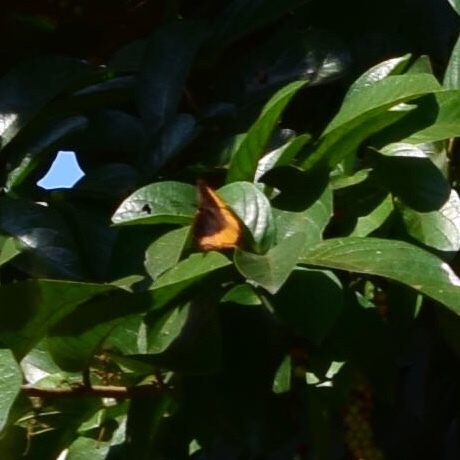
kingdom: Animalia
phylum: Arthropoda
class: Insecta
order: Lepidoptera
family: Nymphalidae
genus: Eurytela
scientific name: Eurytela dryope
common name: Golden piper
